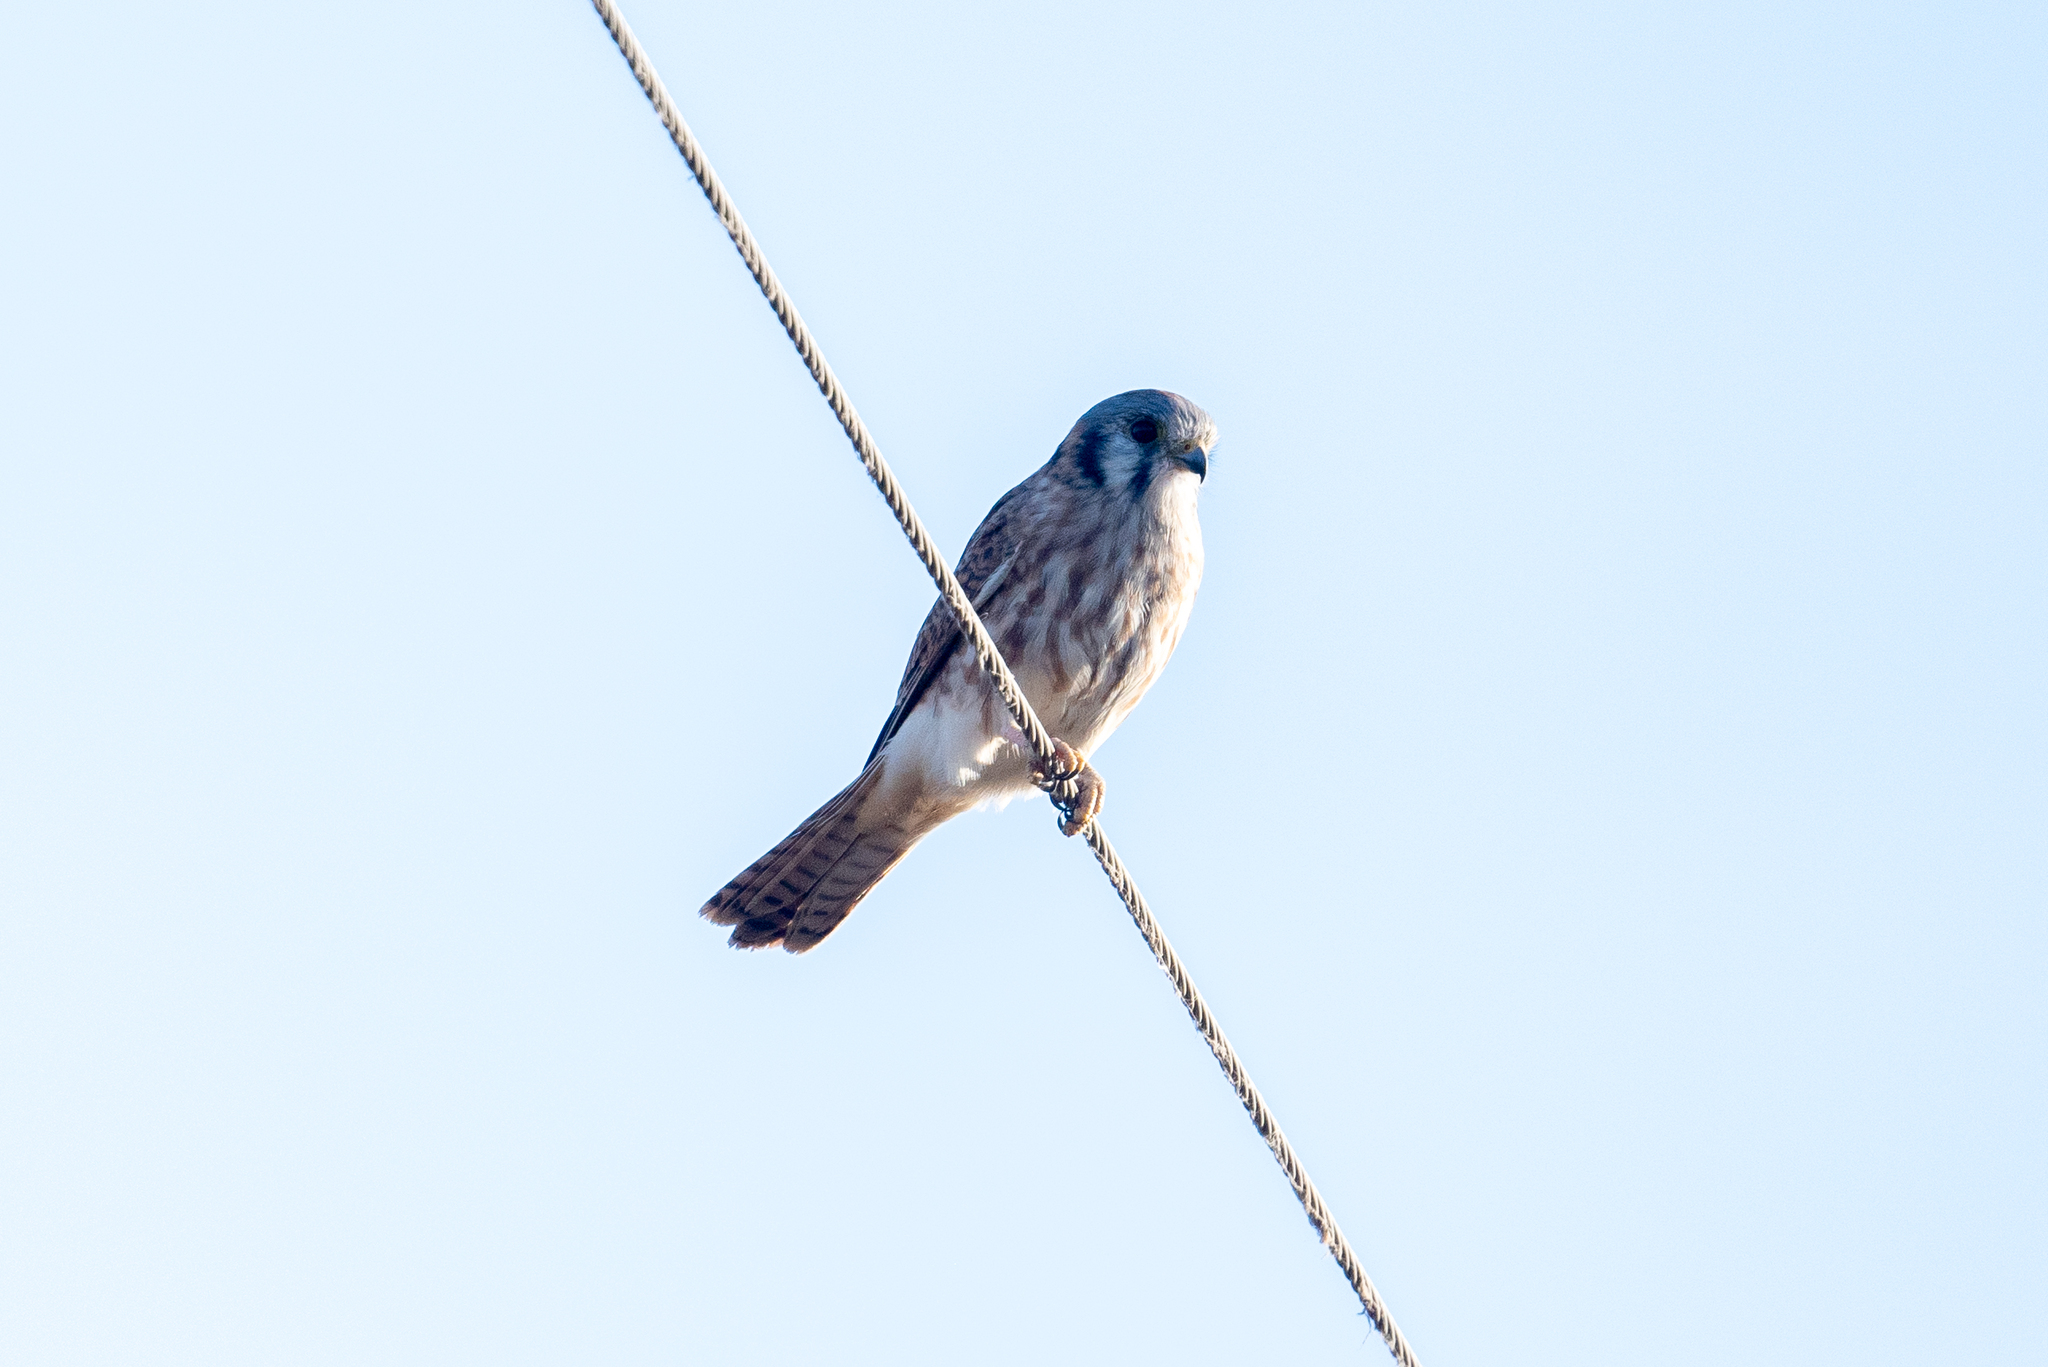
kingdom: Animalia
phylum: Chordata
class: Aves
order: Falconiformes
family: Falconidae
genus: Falco
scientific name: Falco sparverius
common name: American kestrel
